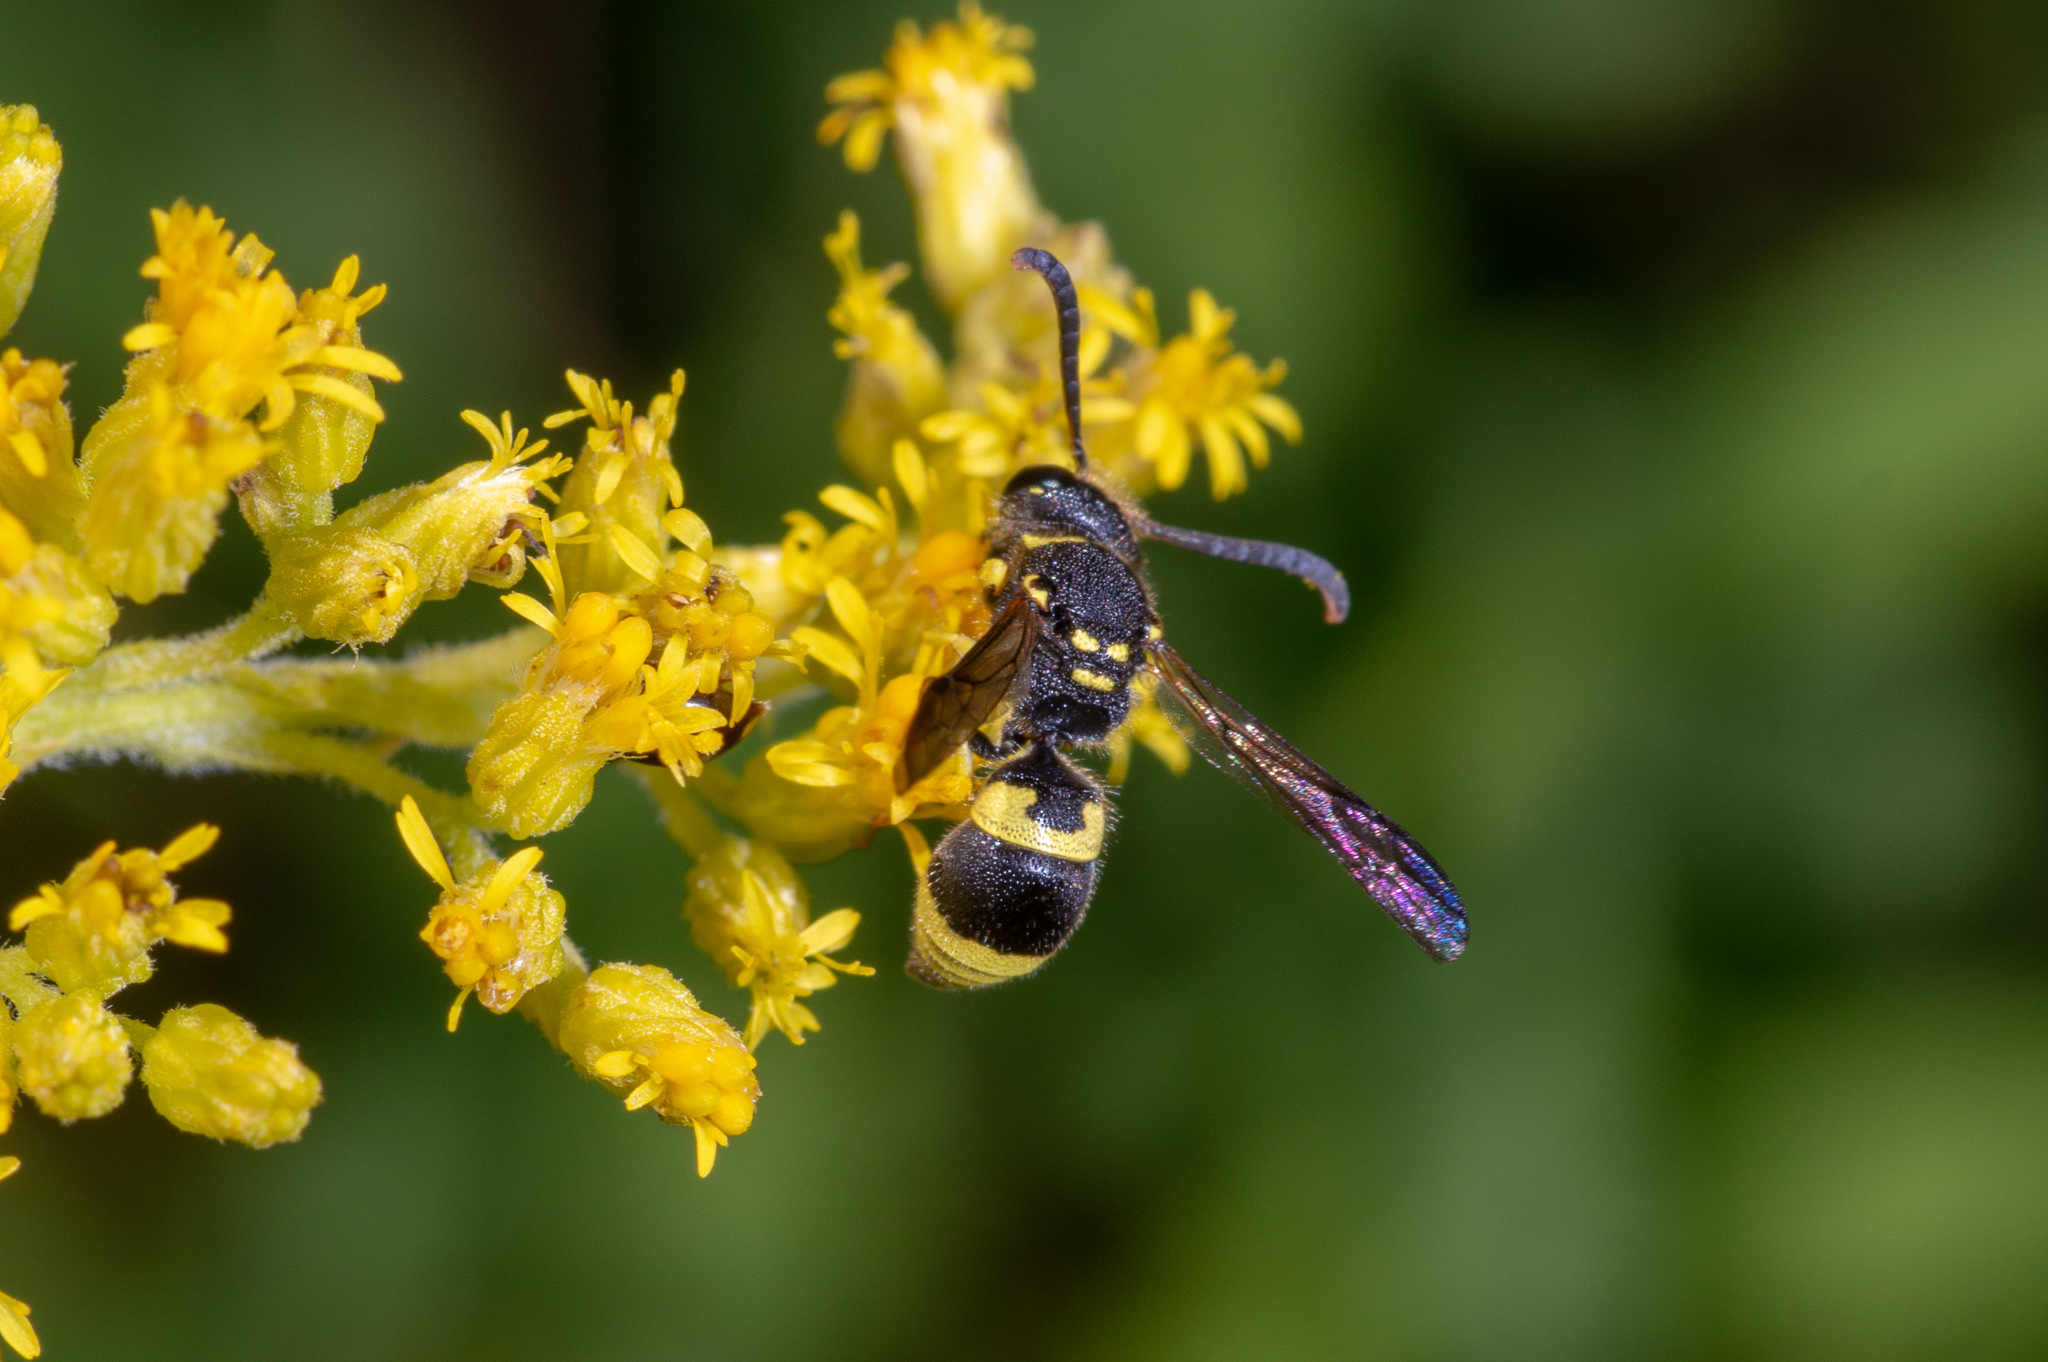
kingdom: Animalia
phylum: Arthropoda
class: Insecta
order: Hymenoptera
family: Vespidae
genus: Ancistrocerus
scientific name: Ancistrocerus gazella
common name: European tube wasp
